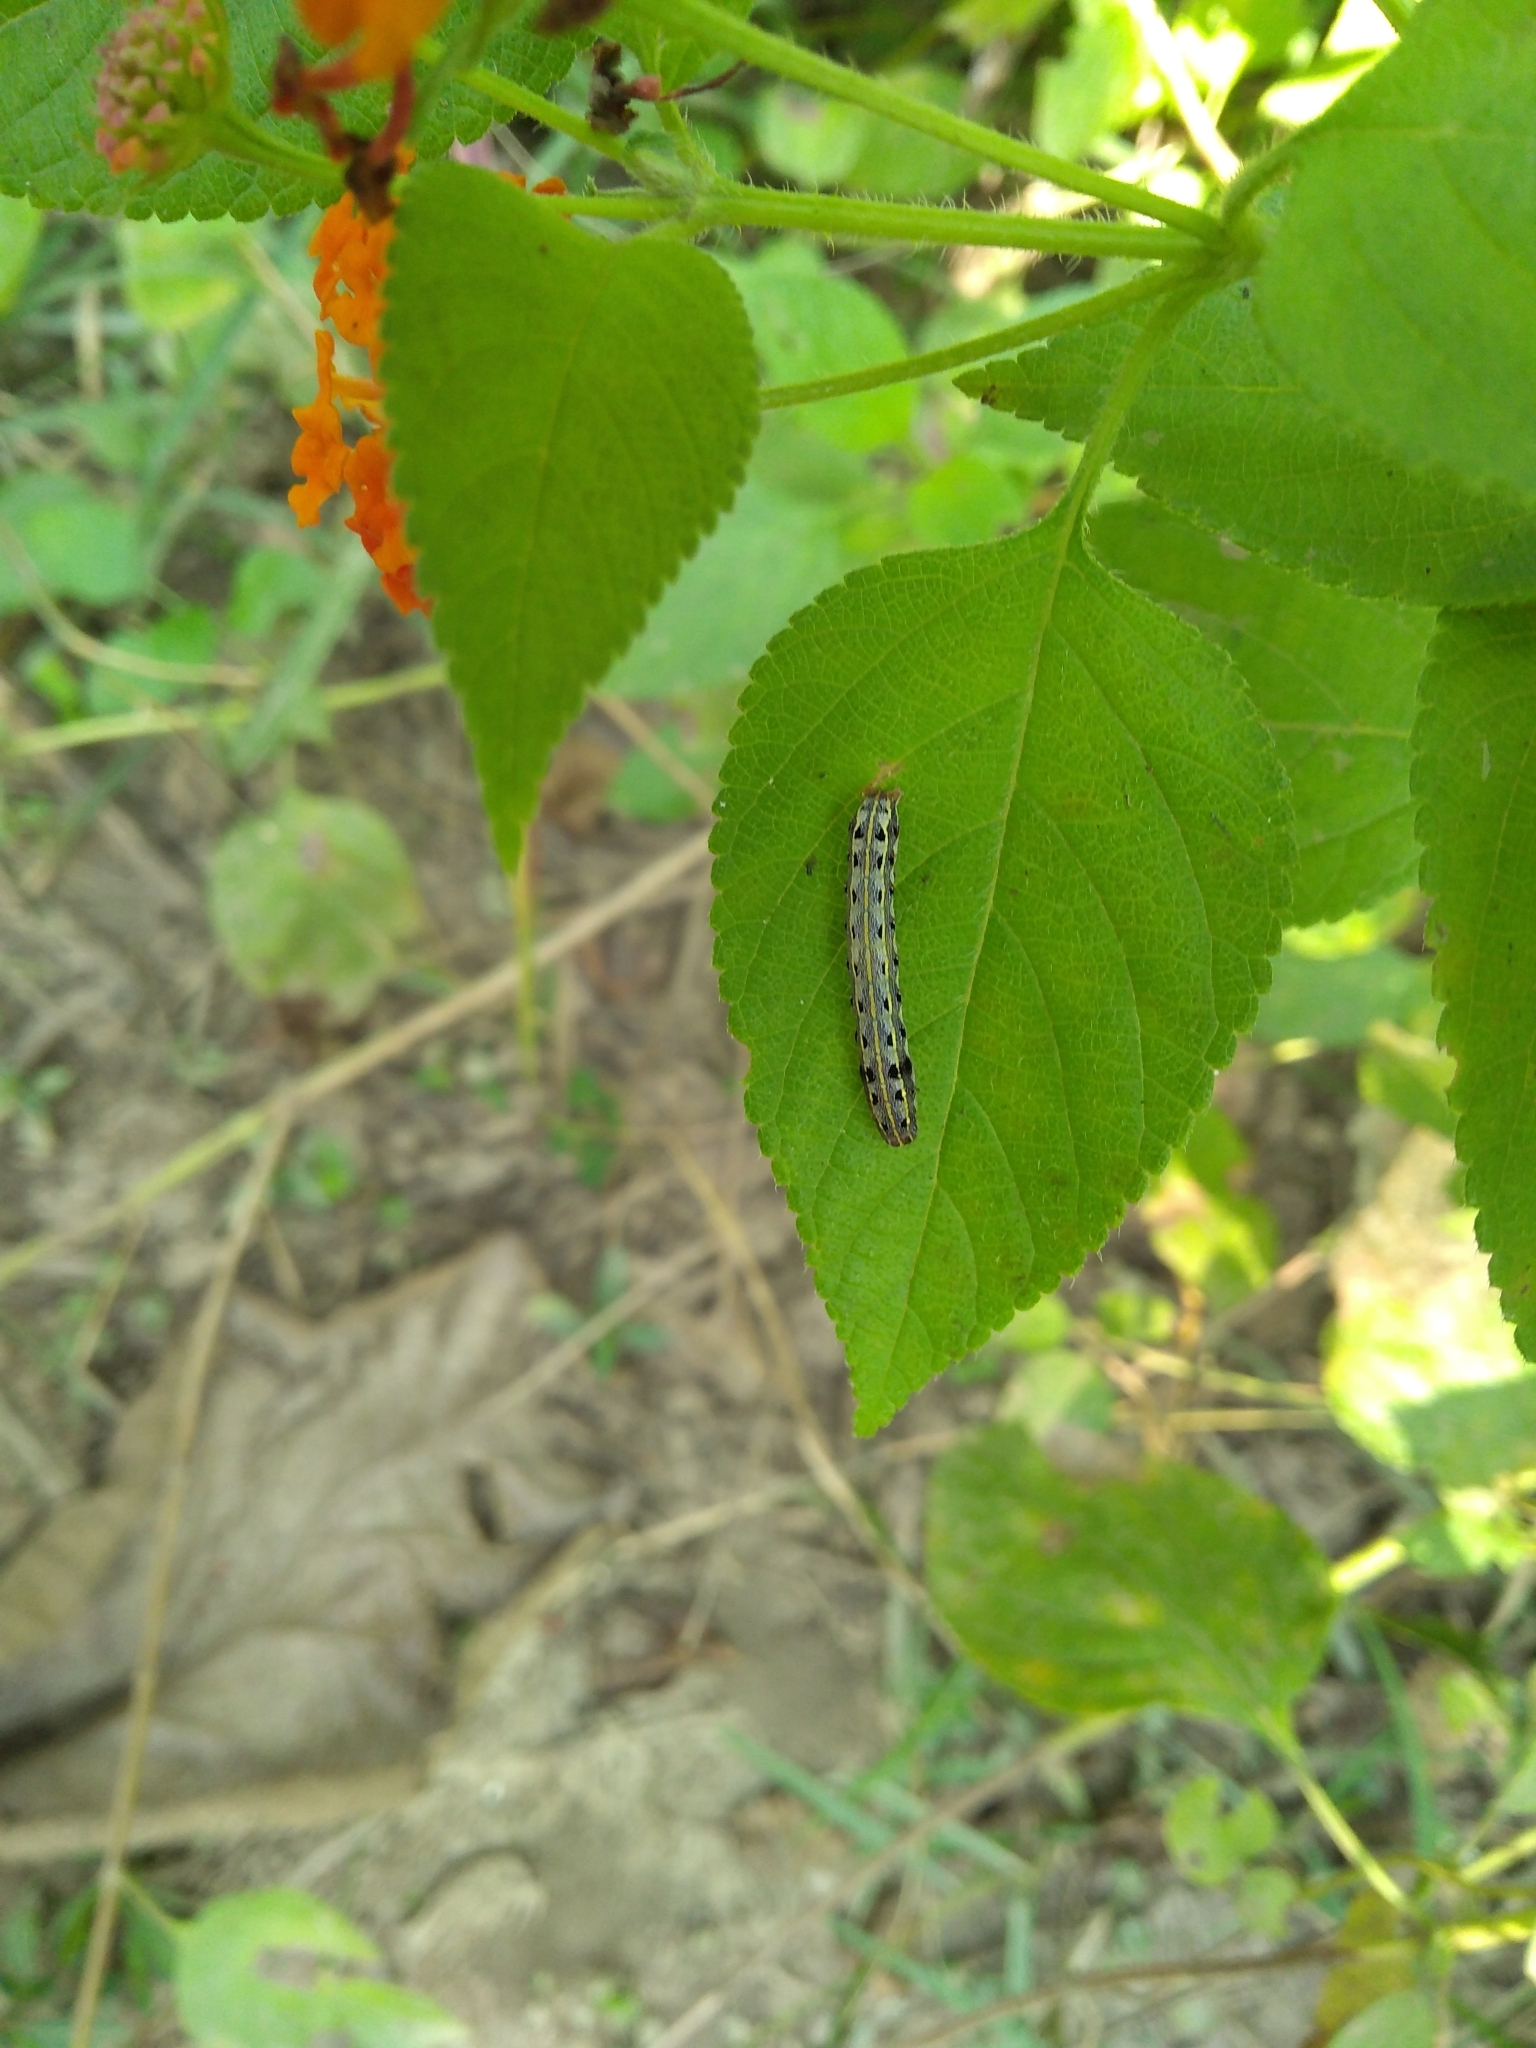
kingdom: Animalia
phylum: Arthropoda
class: Insecta
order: Lepidoptera
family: Noctuidae
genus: Spodoptera
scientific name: Spodoptera litura
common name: Asian cotton leafworm
